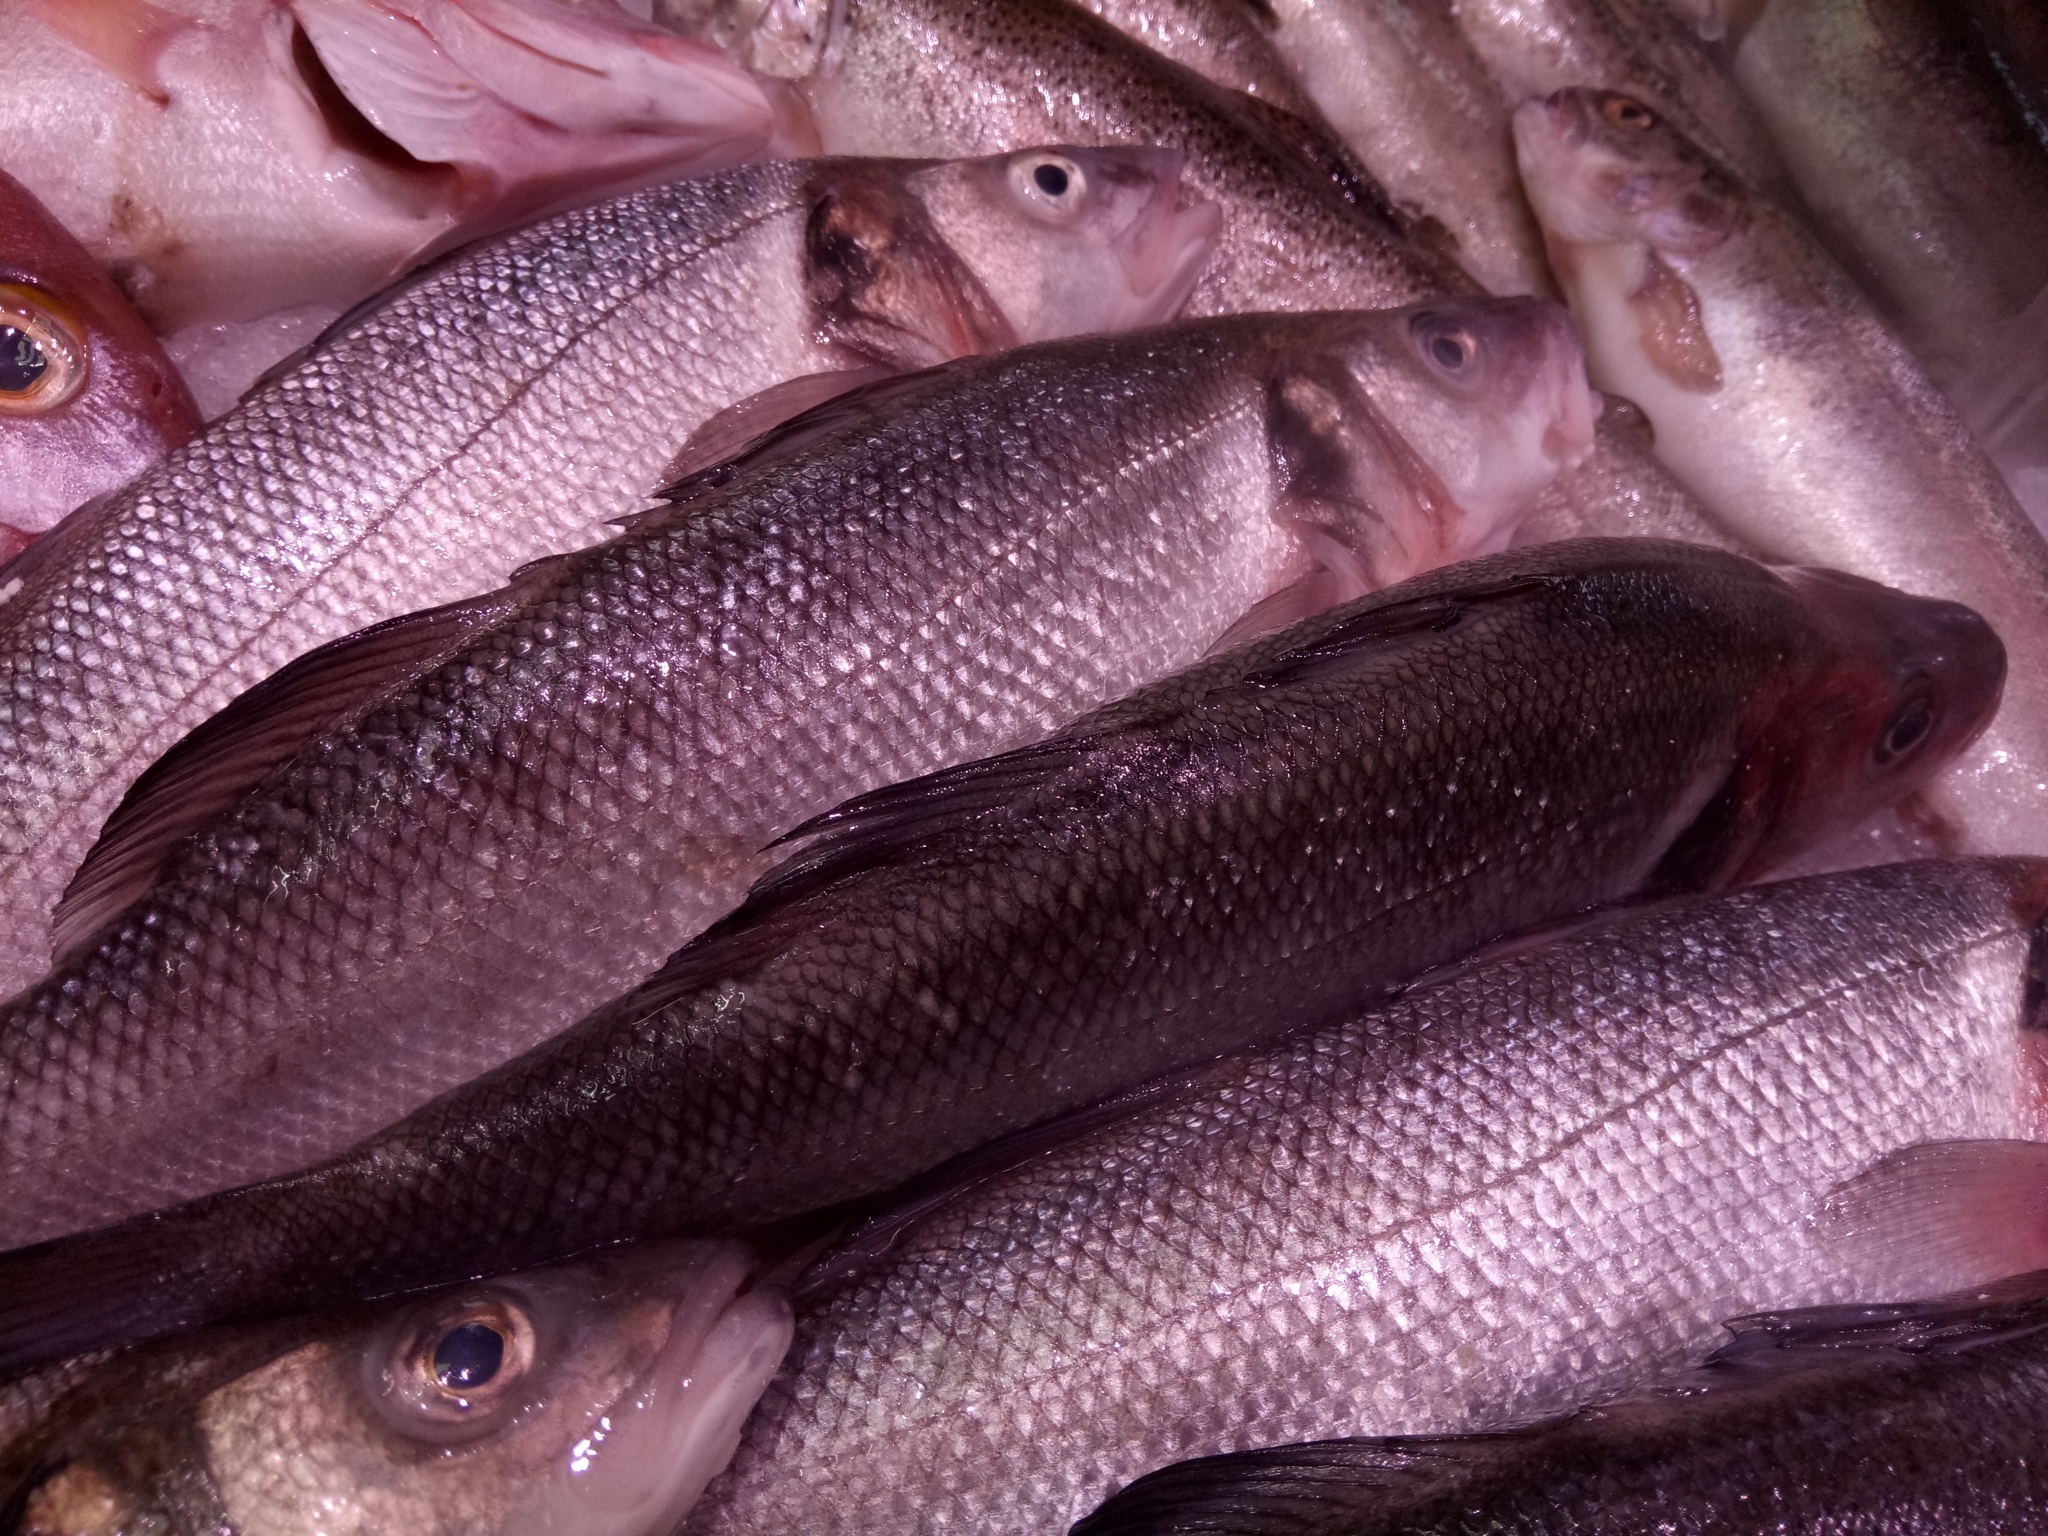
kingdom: Animalia
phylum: Chordata
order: Perciformes
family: Moronidae
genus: Dicentrarchus
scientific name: Dicentrarchus labrax
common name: European seabass
